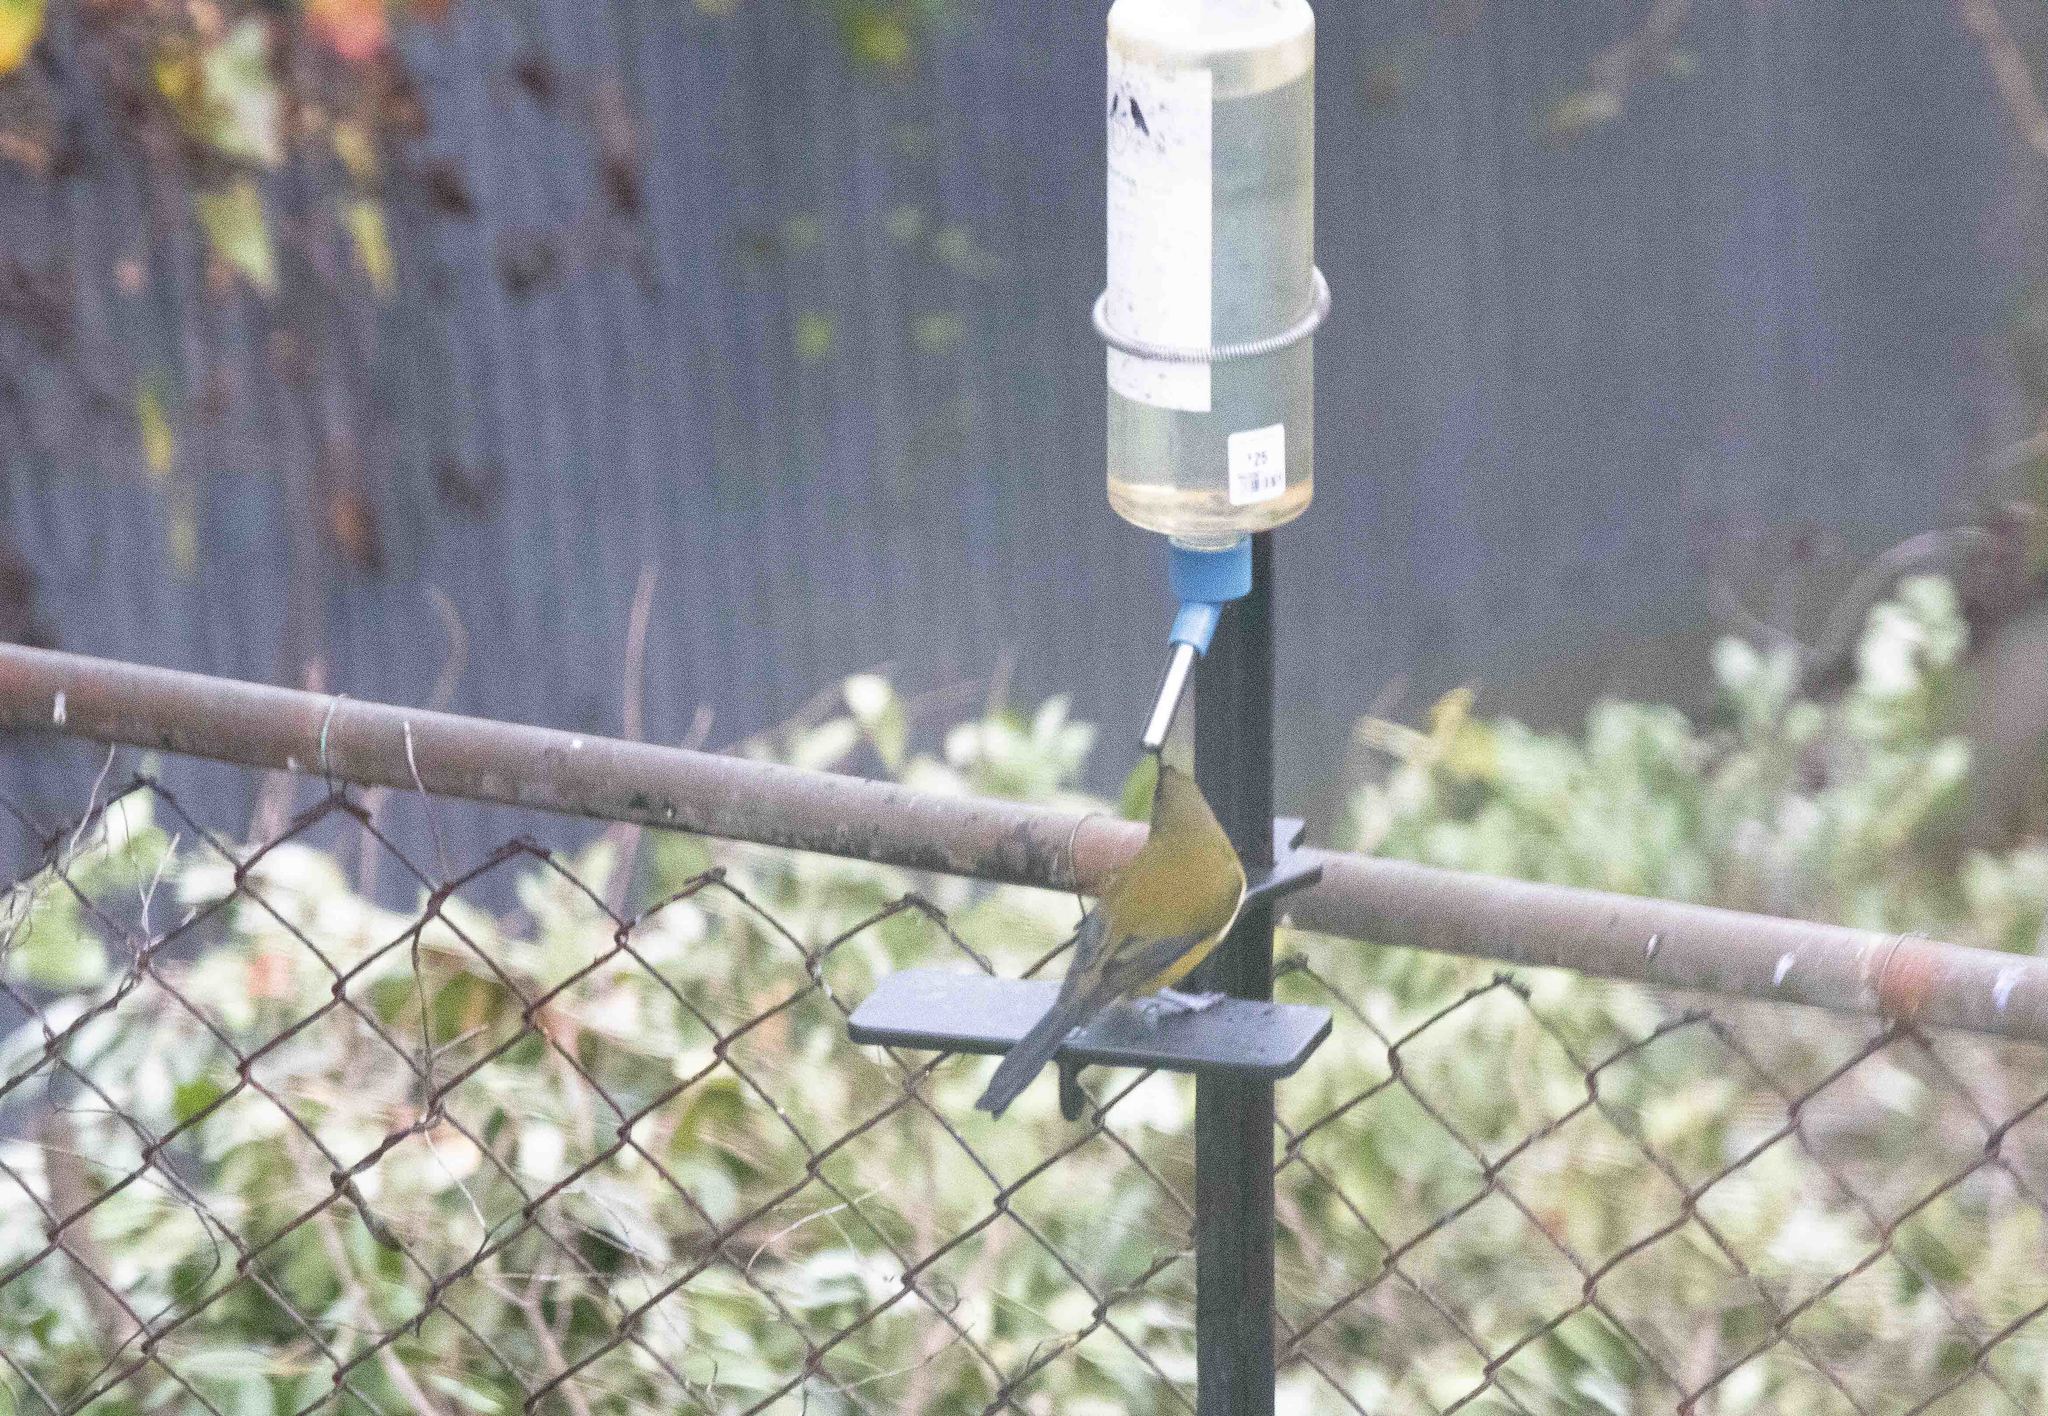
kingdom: Animalia
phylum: Chordata
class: Aves
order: Passeriformes
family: Meliphagidae
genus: Anthornis
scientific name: Anthornis melanura
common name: New zealand bellbird
